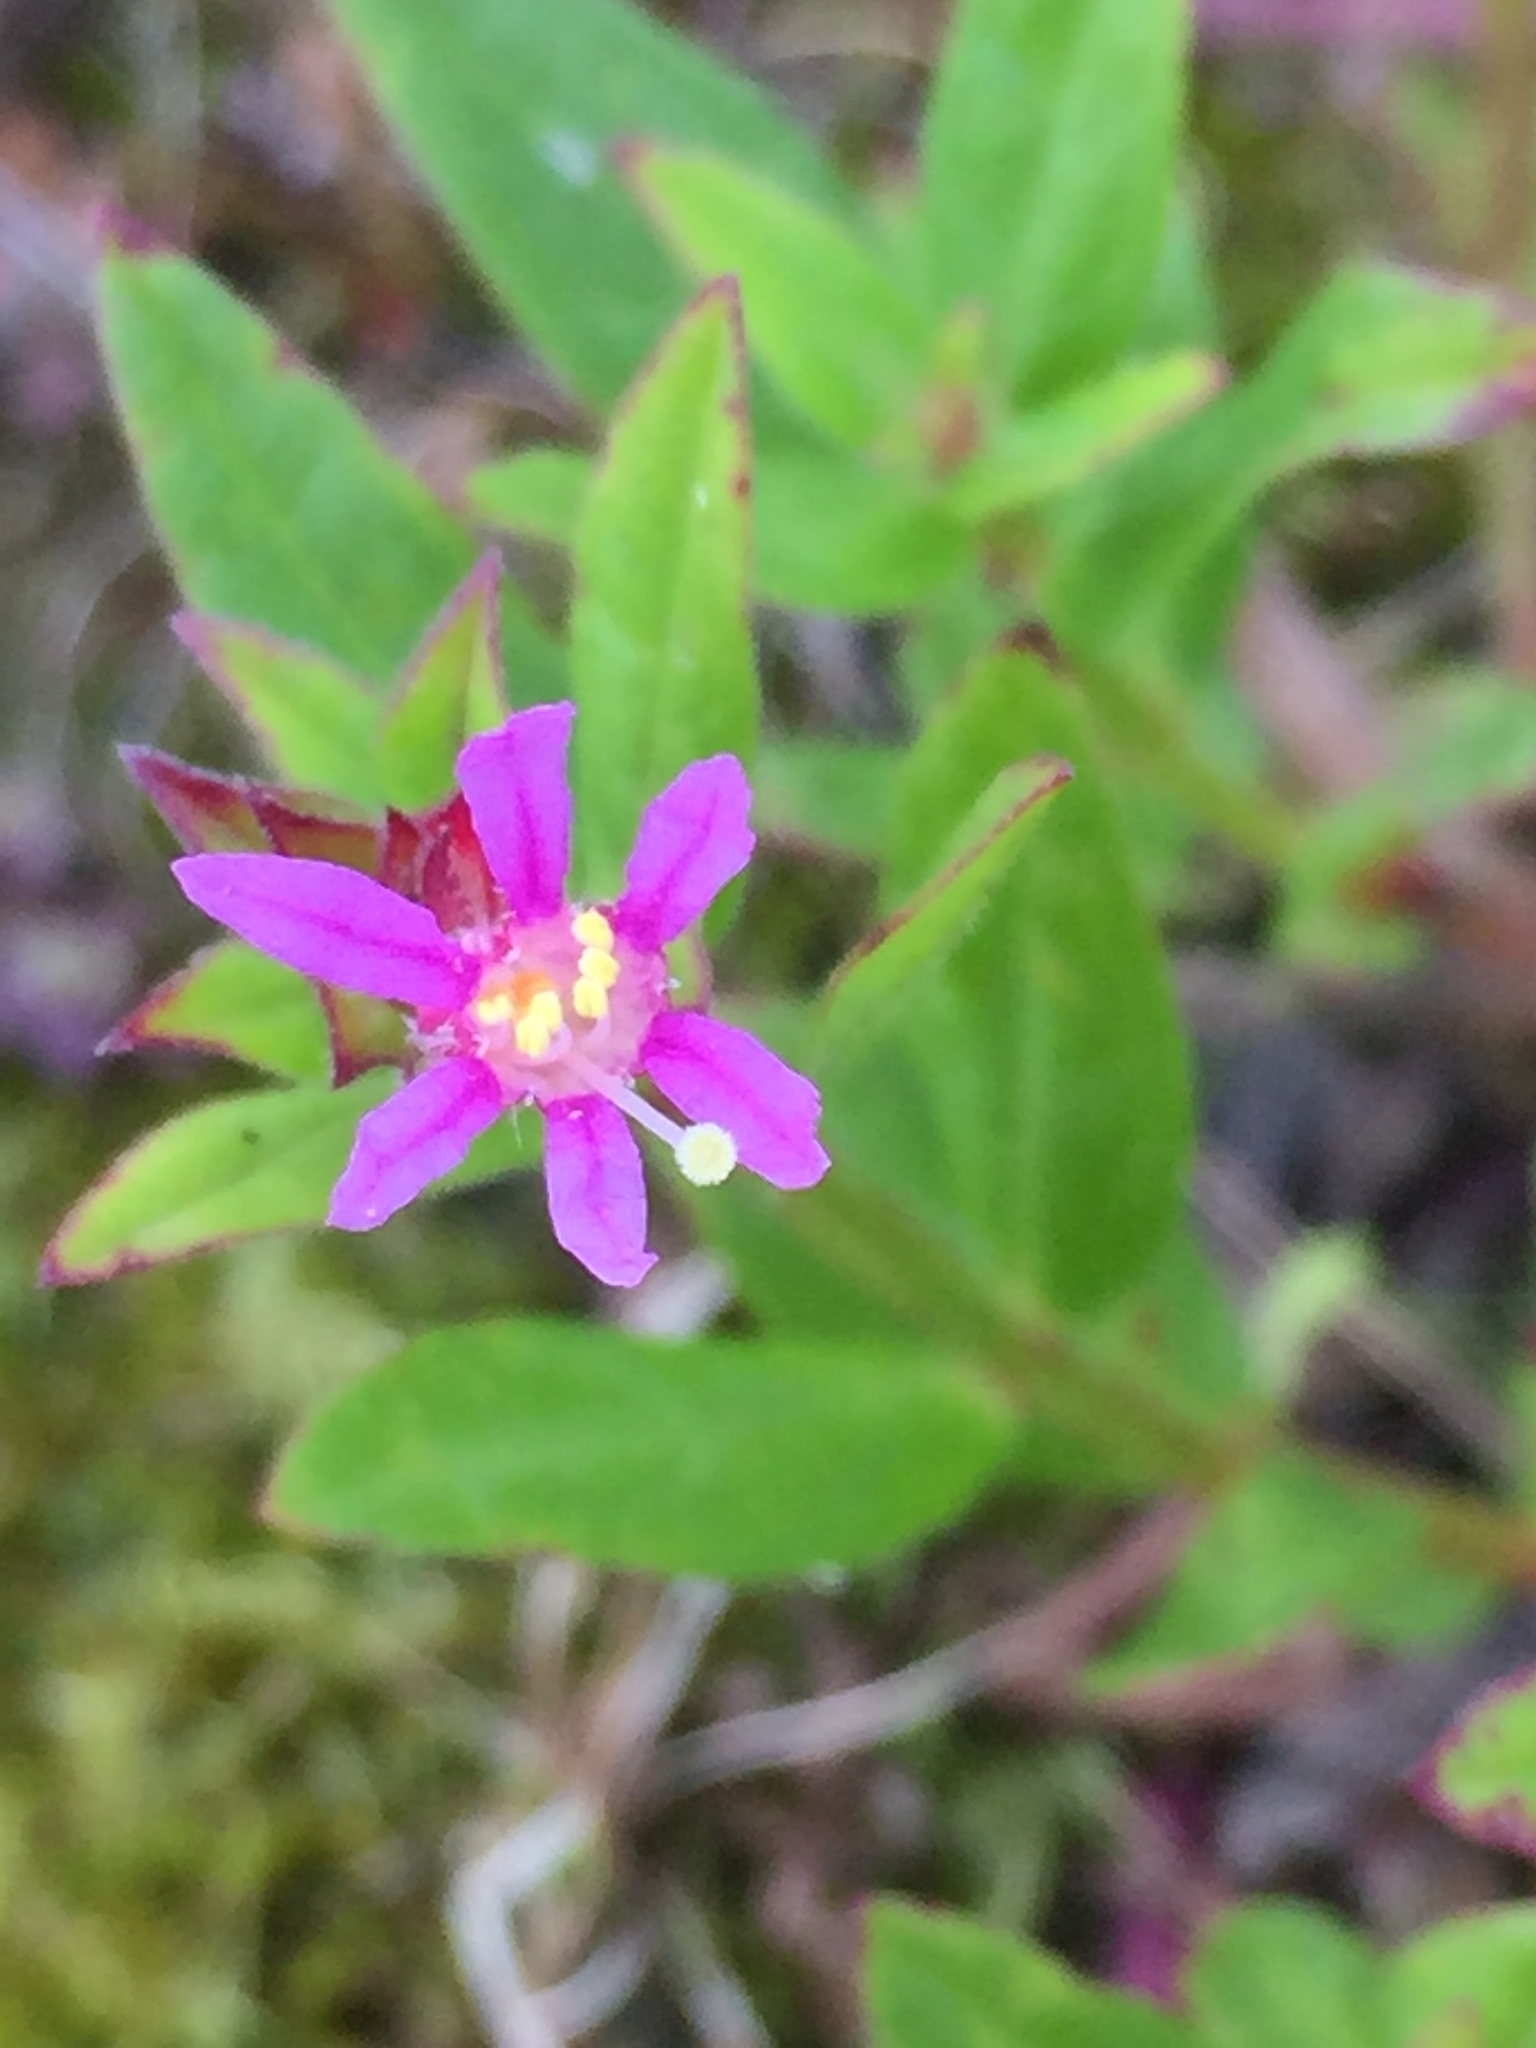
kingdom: Plantae
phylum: Tracheophyta
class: Magnoliopsida
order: Myrtales
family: Lythraceae
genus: Lythrum
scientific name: Lythrum salicaria
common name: Purple loosestrife
